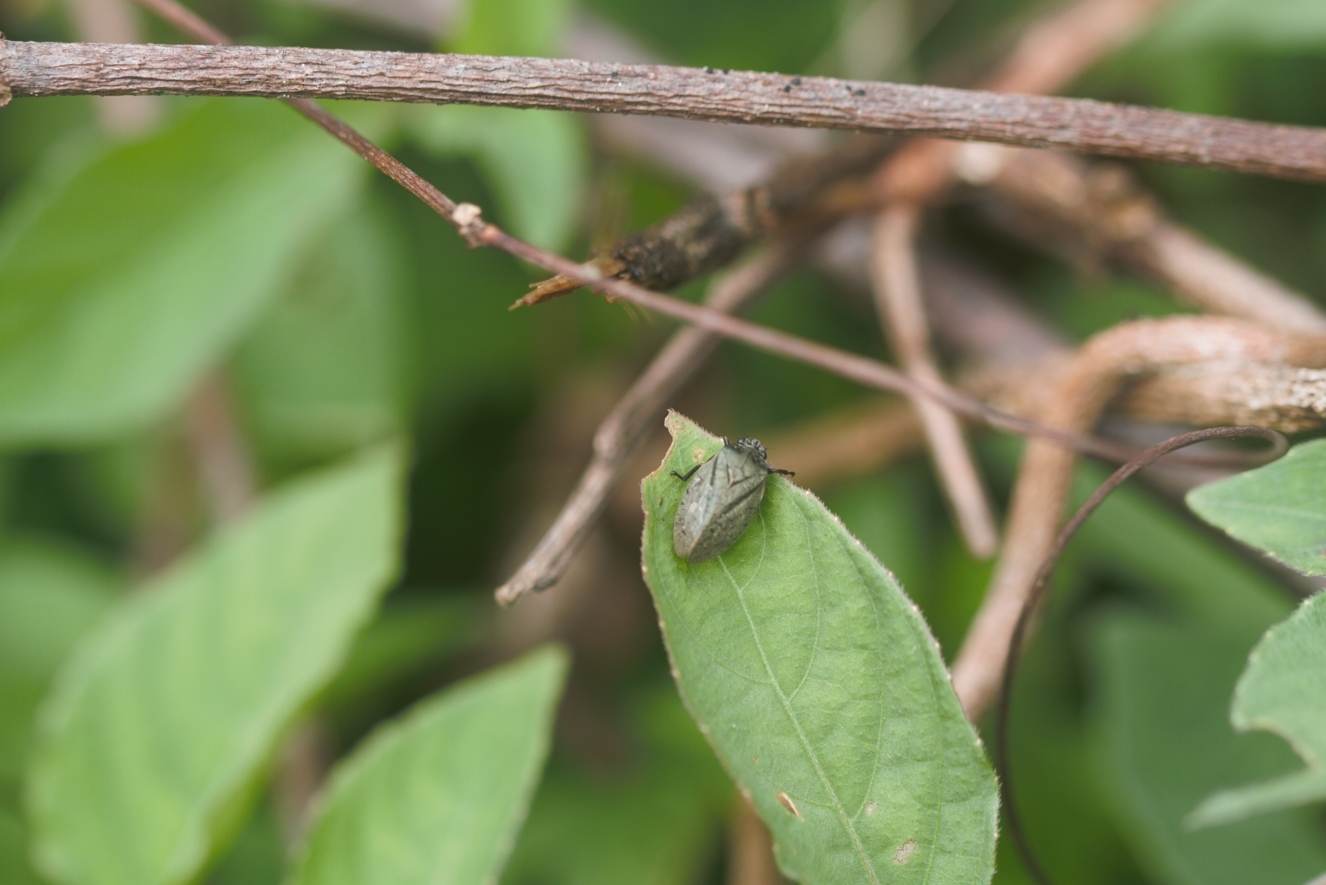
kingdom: Animalia
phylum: Arthropoda
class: Insecta
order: Hemiptera
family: Cercopidae
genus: Zulia
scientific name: Zulia pubescens
